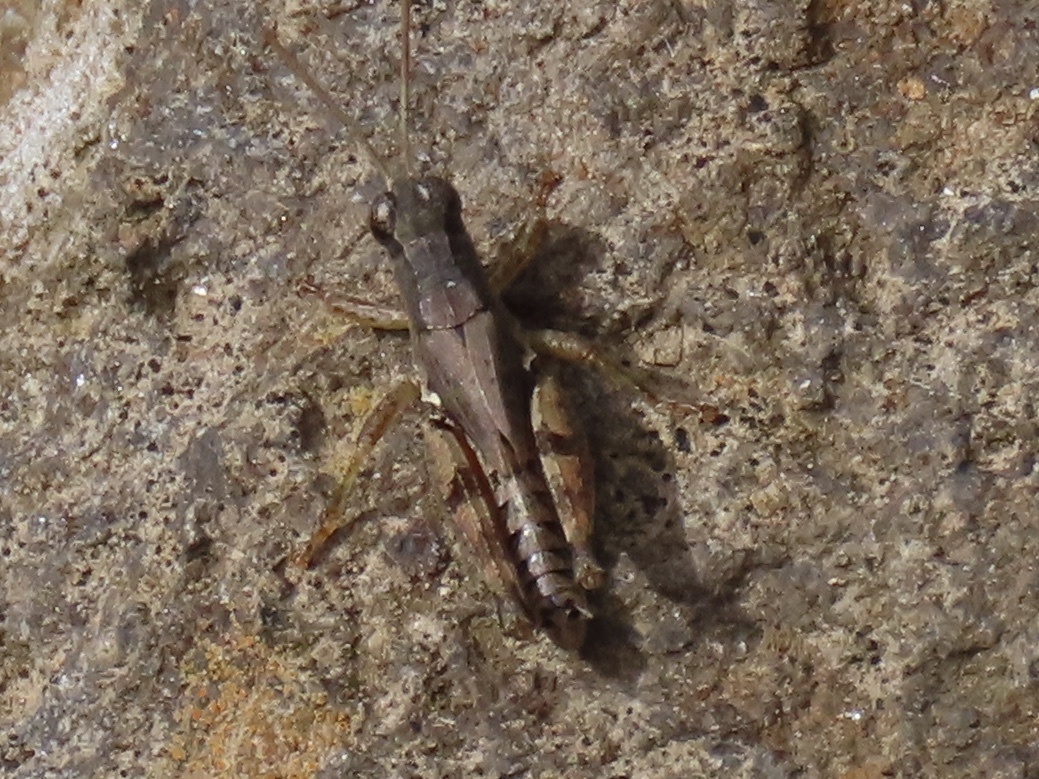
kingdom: Animalia
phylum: Arthropoda
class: Insecta
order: Orthoptera
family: Acrididae
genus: Phaulacridium
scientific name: Phaulacridium vittatum
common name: Wingless grasshopper
